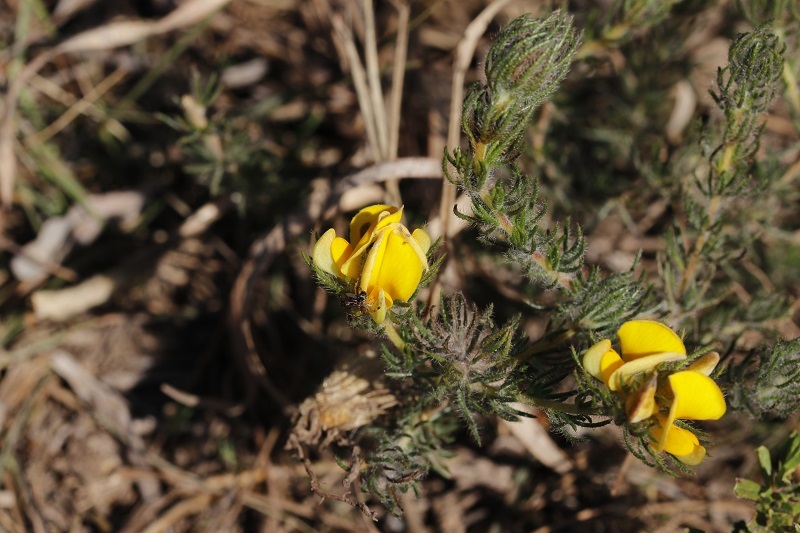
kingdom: Plantae
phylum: Tracheophyta
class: Magnoliopsida
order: Fabales
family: Fabaceae
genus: Aspalathus
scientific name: Aspalathus ciliaris
